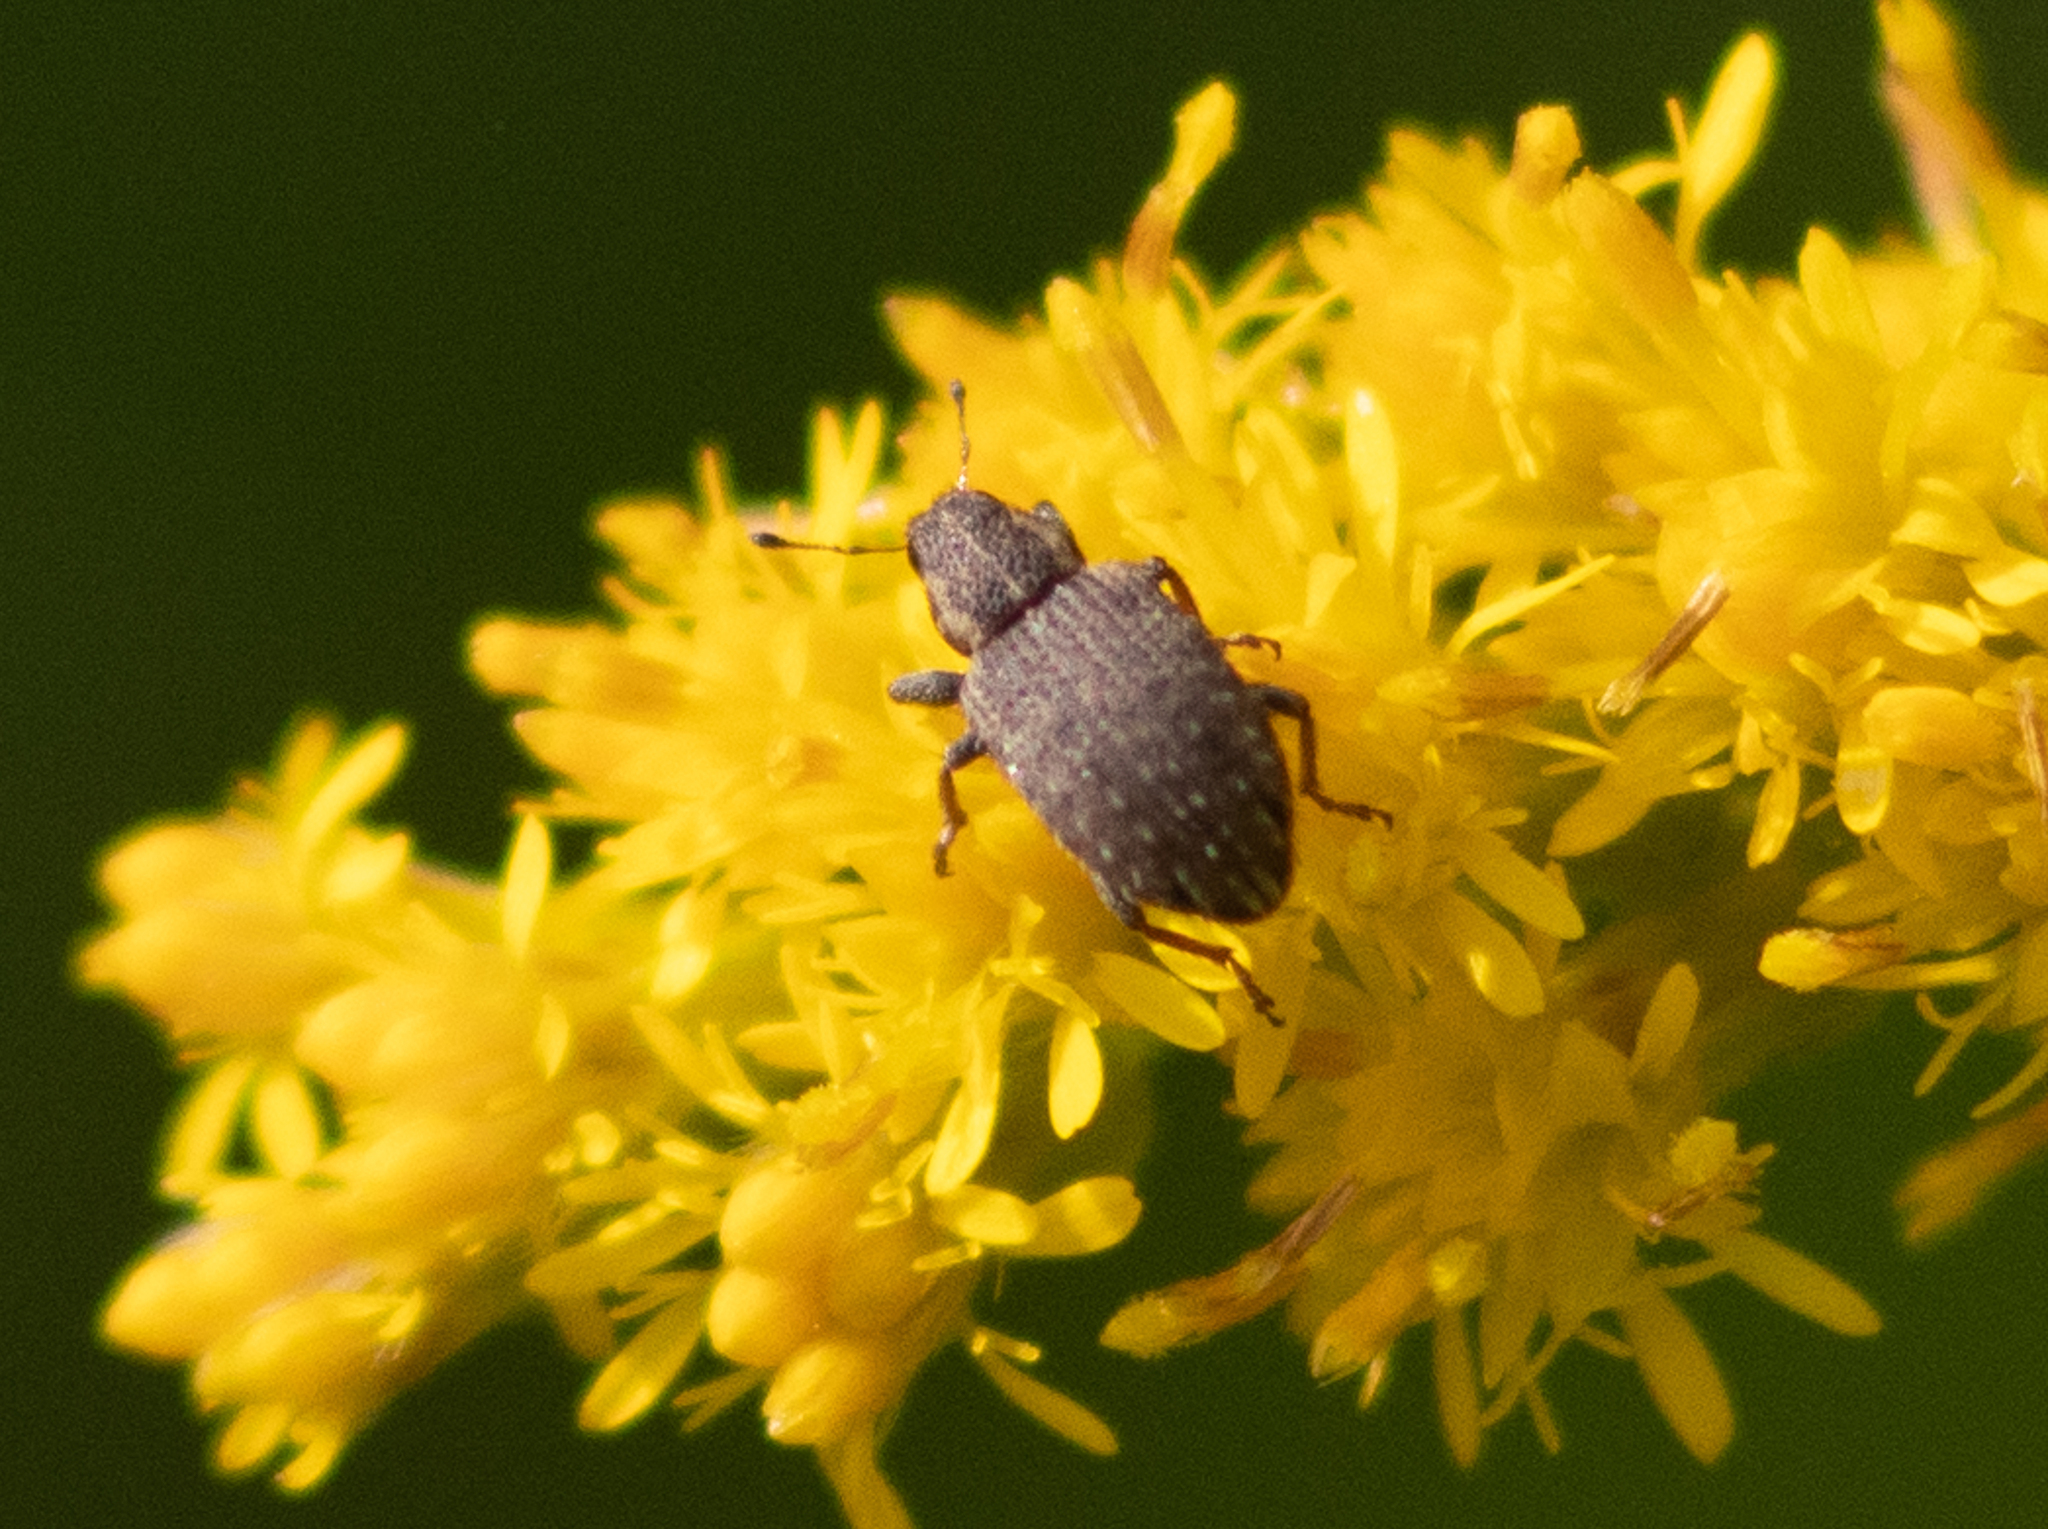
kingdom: Animalia
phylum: Arthropoda
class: Insecta
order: Coleoptera
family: Curculionidae
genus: Sitona
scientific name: Sitona hispidulus
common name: Clover weevil
